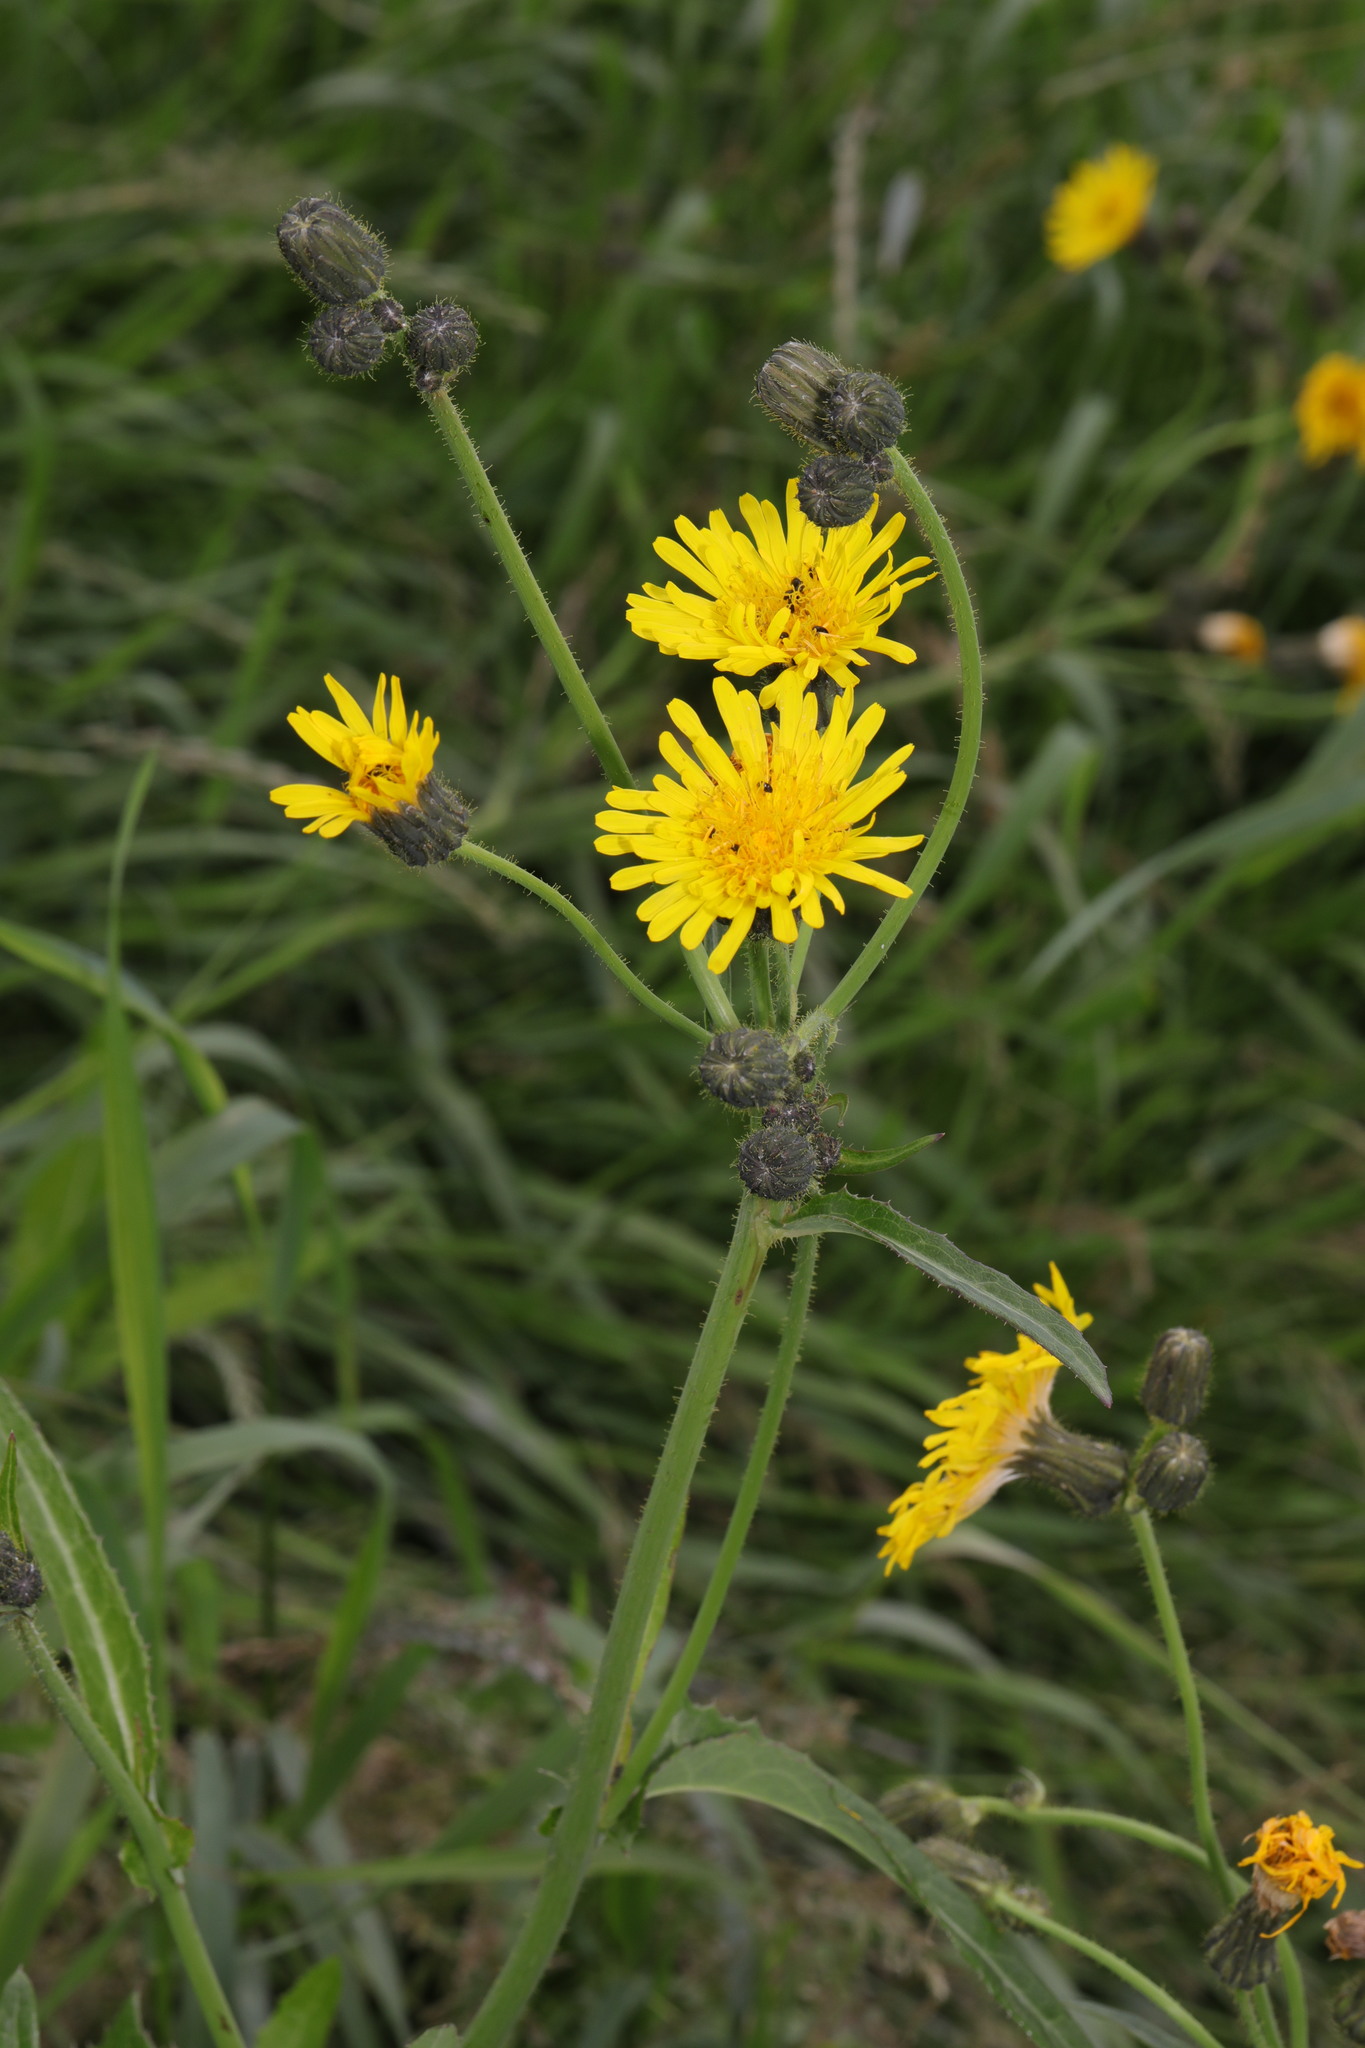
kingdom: Plantae
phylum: Tracheophyta
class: Magnoliopsida
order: Asterales
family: Asteraceae
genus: Sonchus
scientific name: Sonchus arvensis
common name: Perennial sow-thistle
